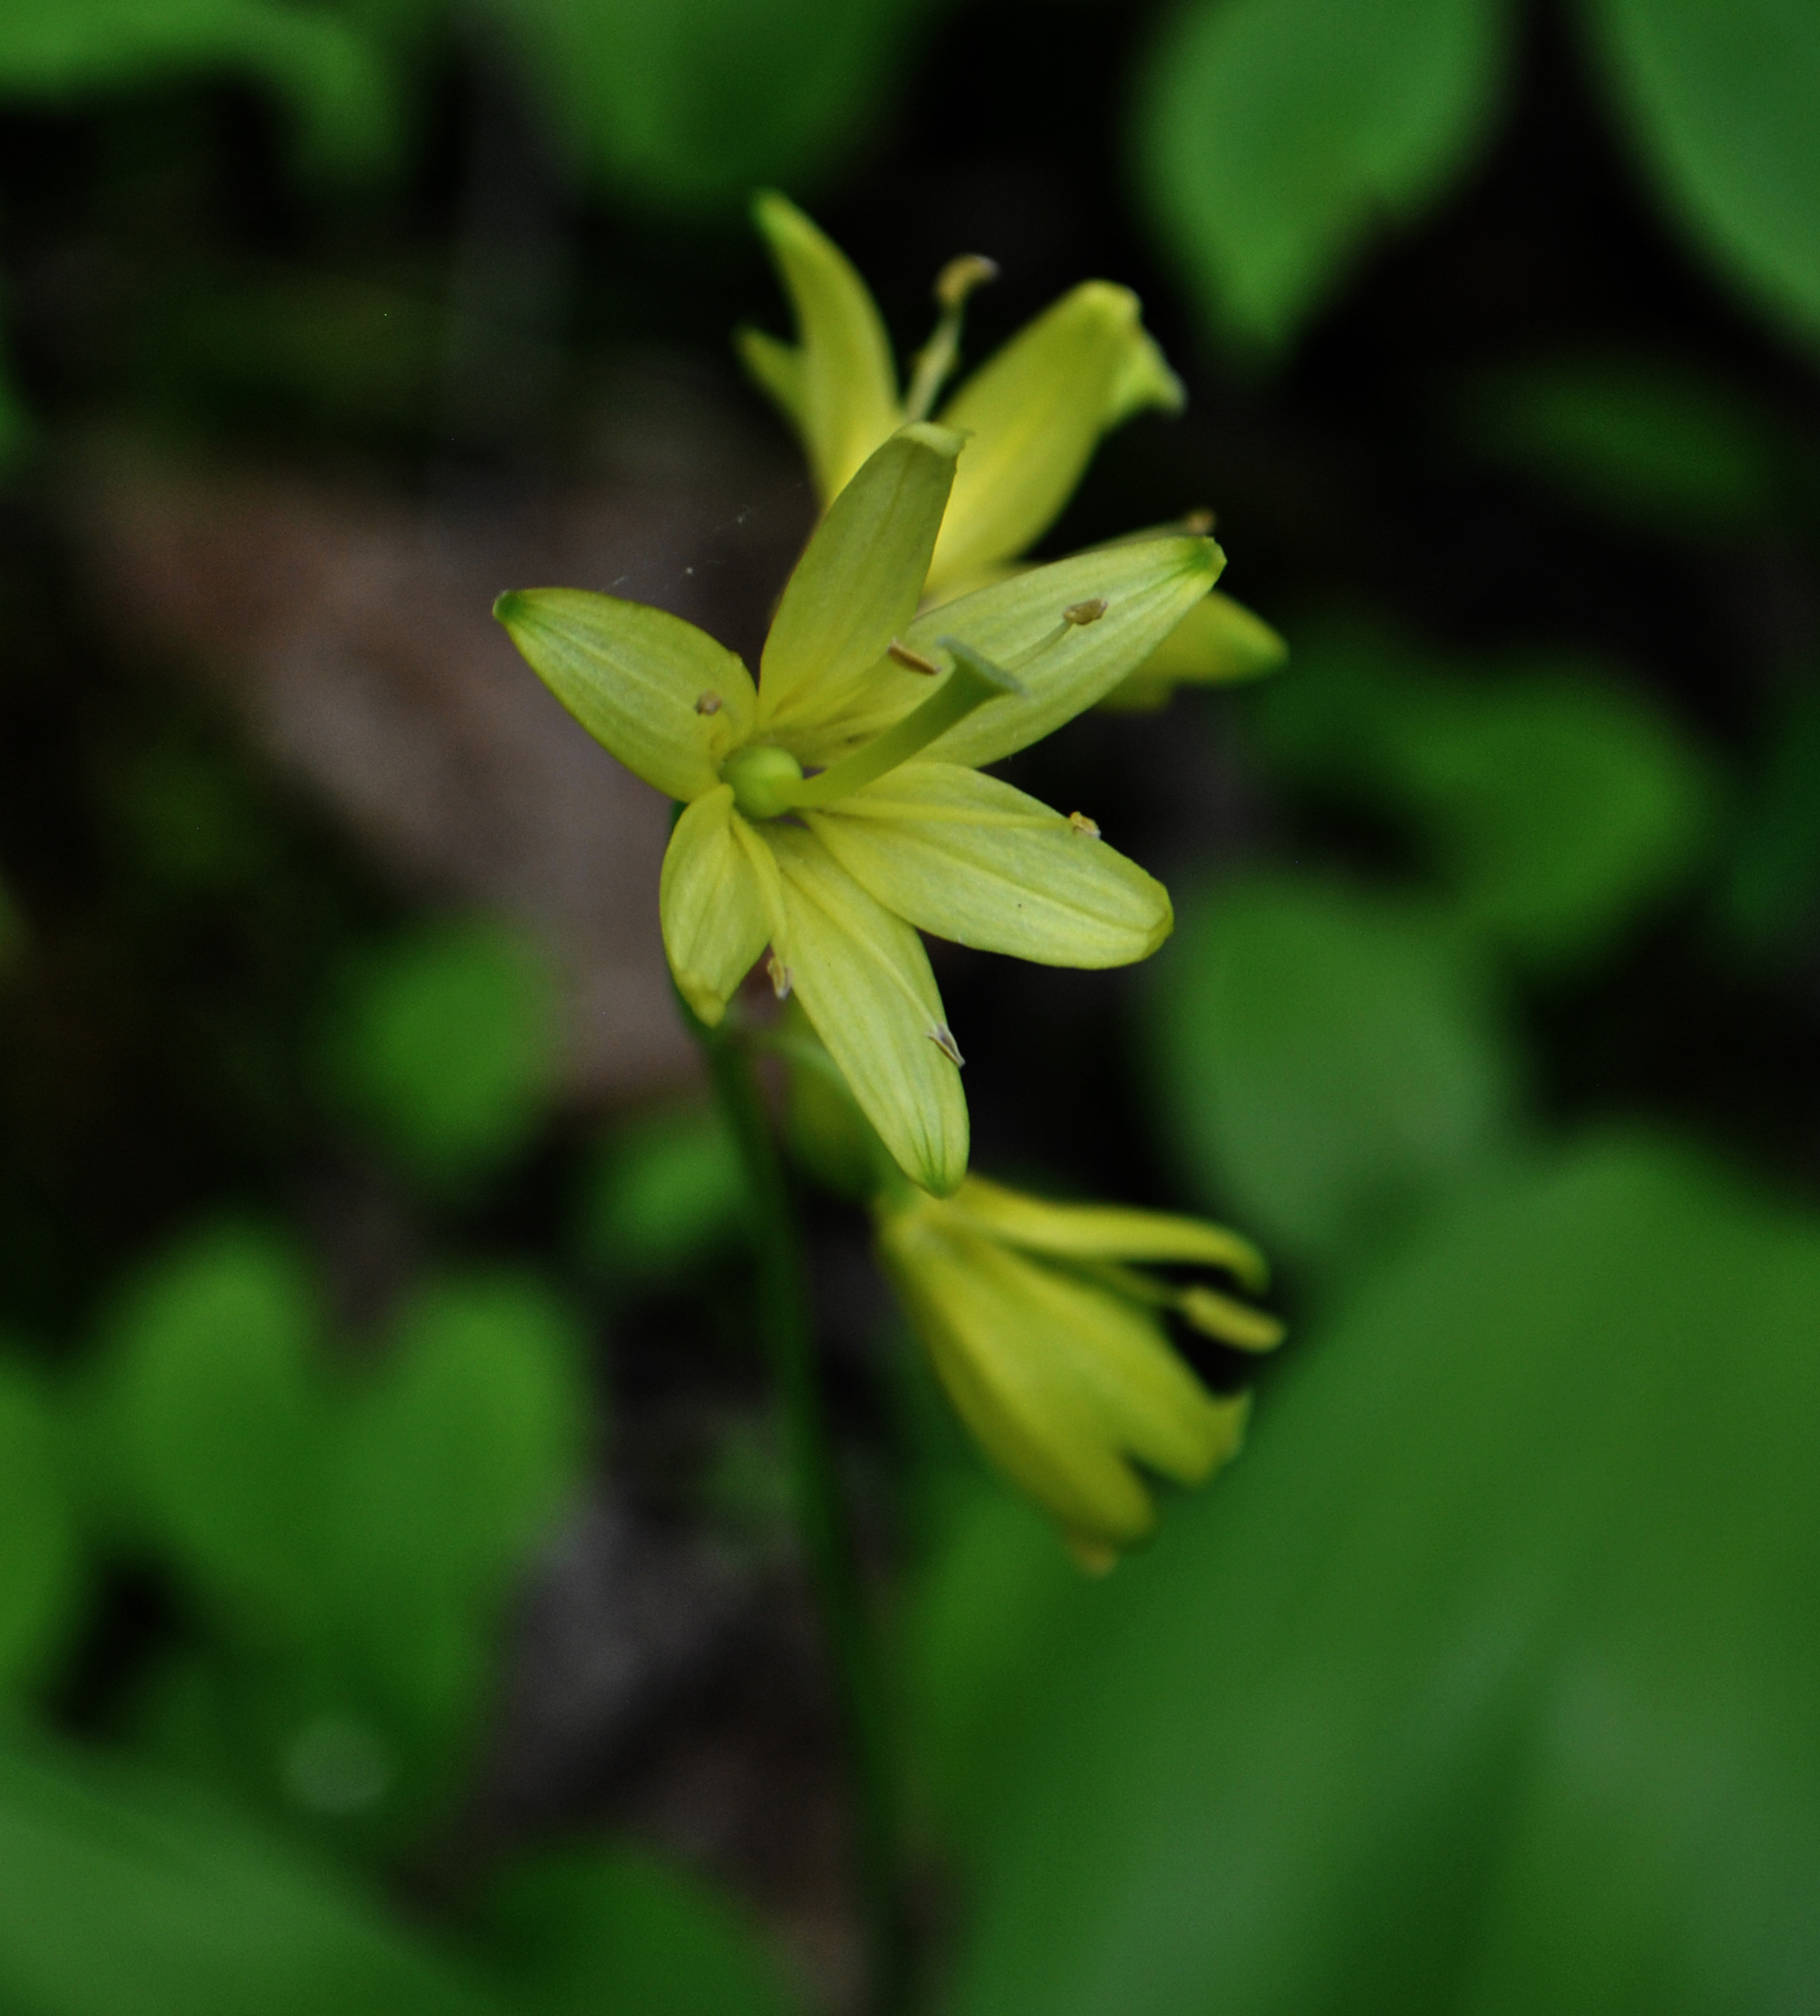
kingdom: Plantae
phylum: Tracheophyta
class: Liliopsida
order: Liliales
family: Liliaceae
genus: Clintonia
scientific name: Clintonia borealis
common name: Yellow clintonia
